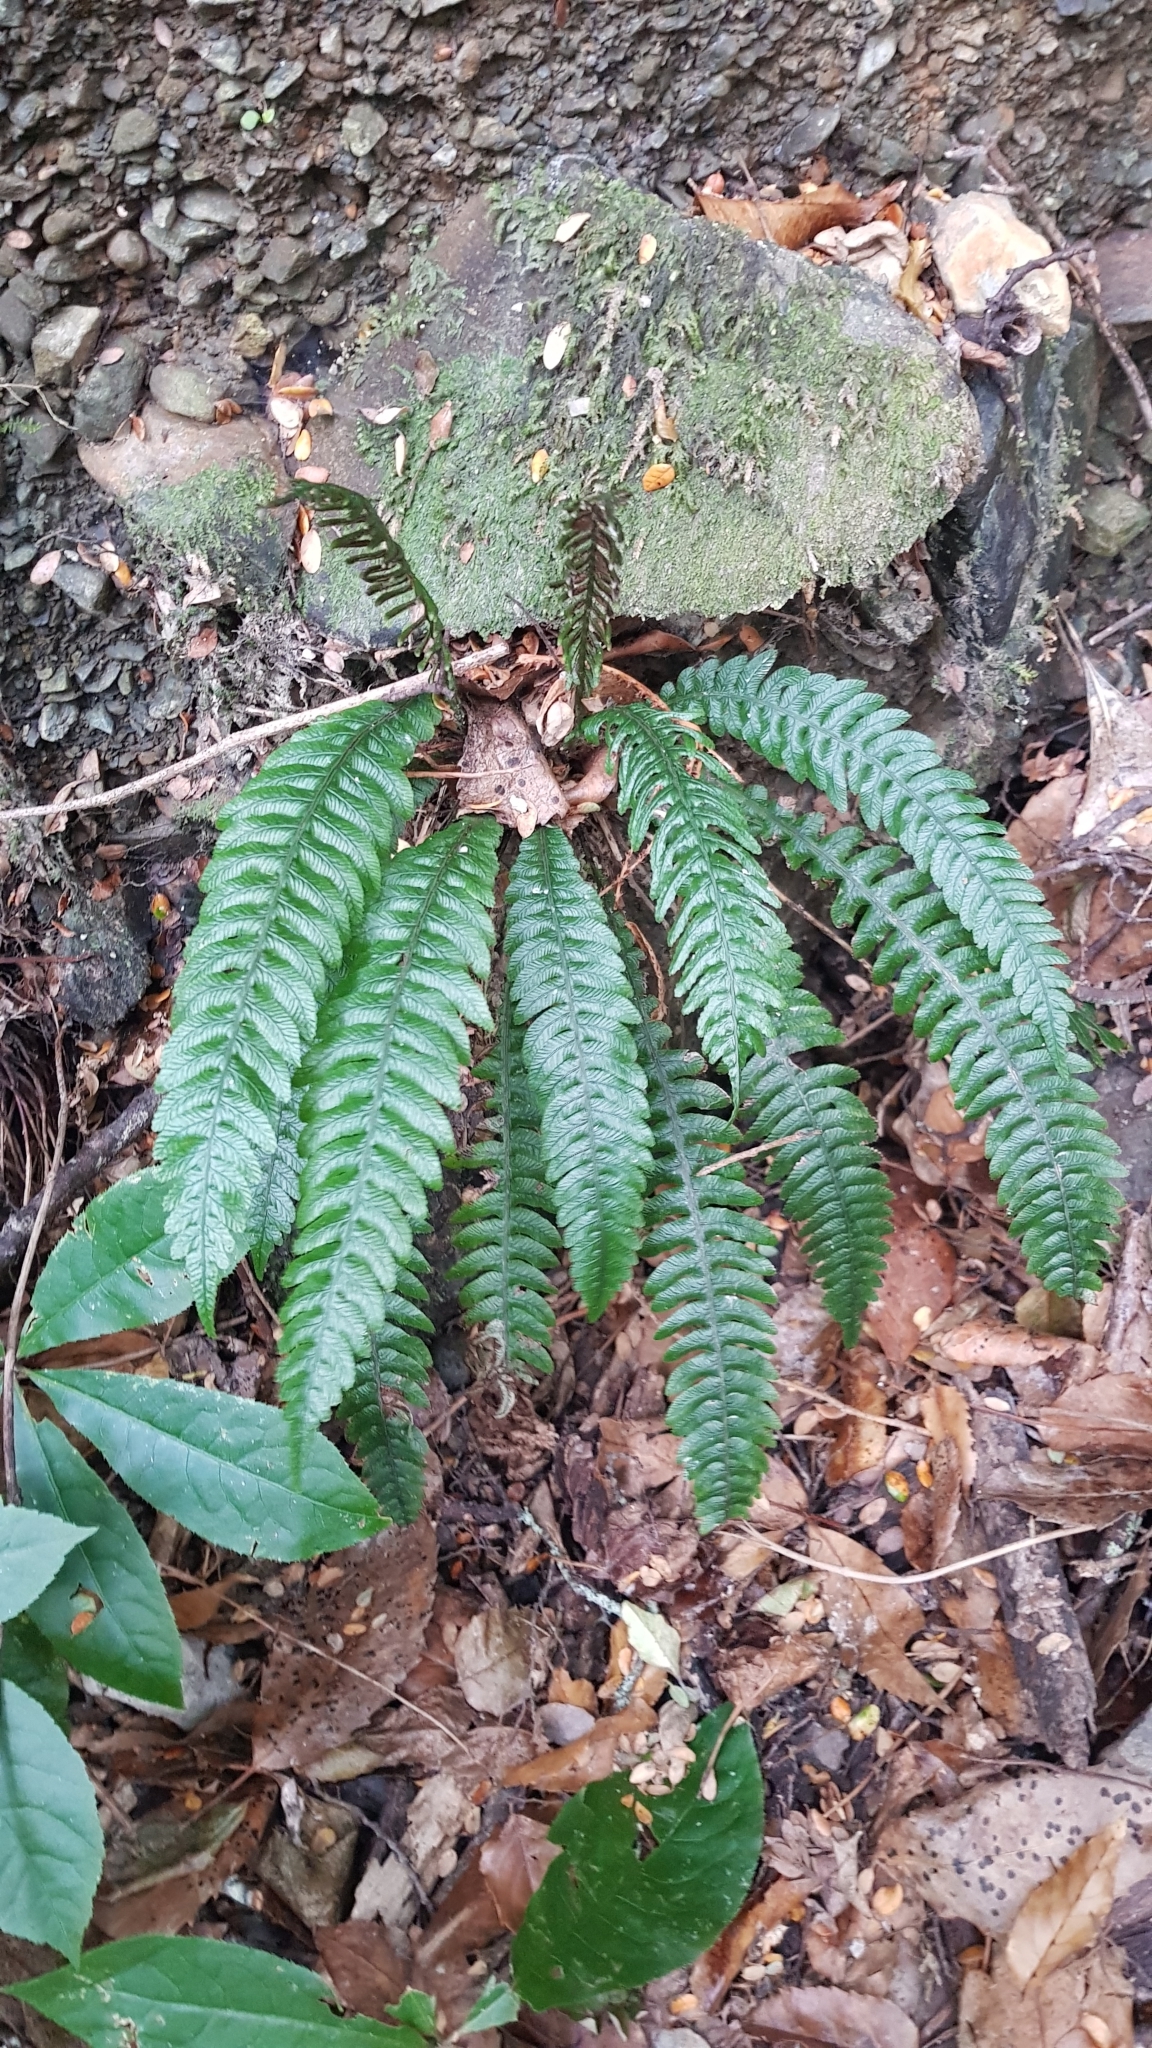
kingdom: Plantae
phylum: Tracheophyta
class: Polypodiopsida
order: Polypodiales
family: Blechnaceae
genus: Austroblechnum
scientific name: Austroblechnum lanceolatum
